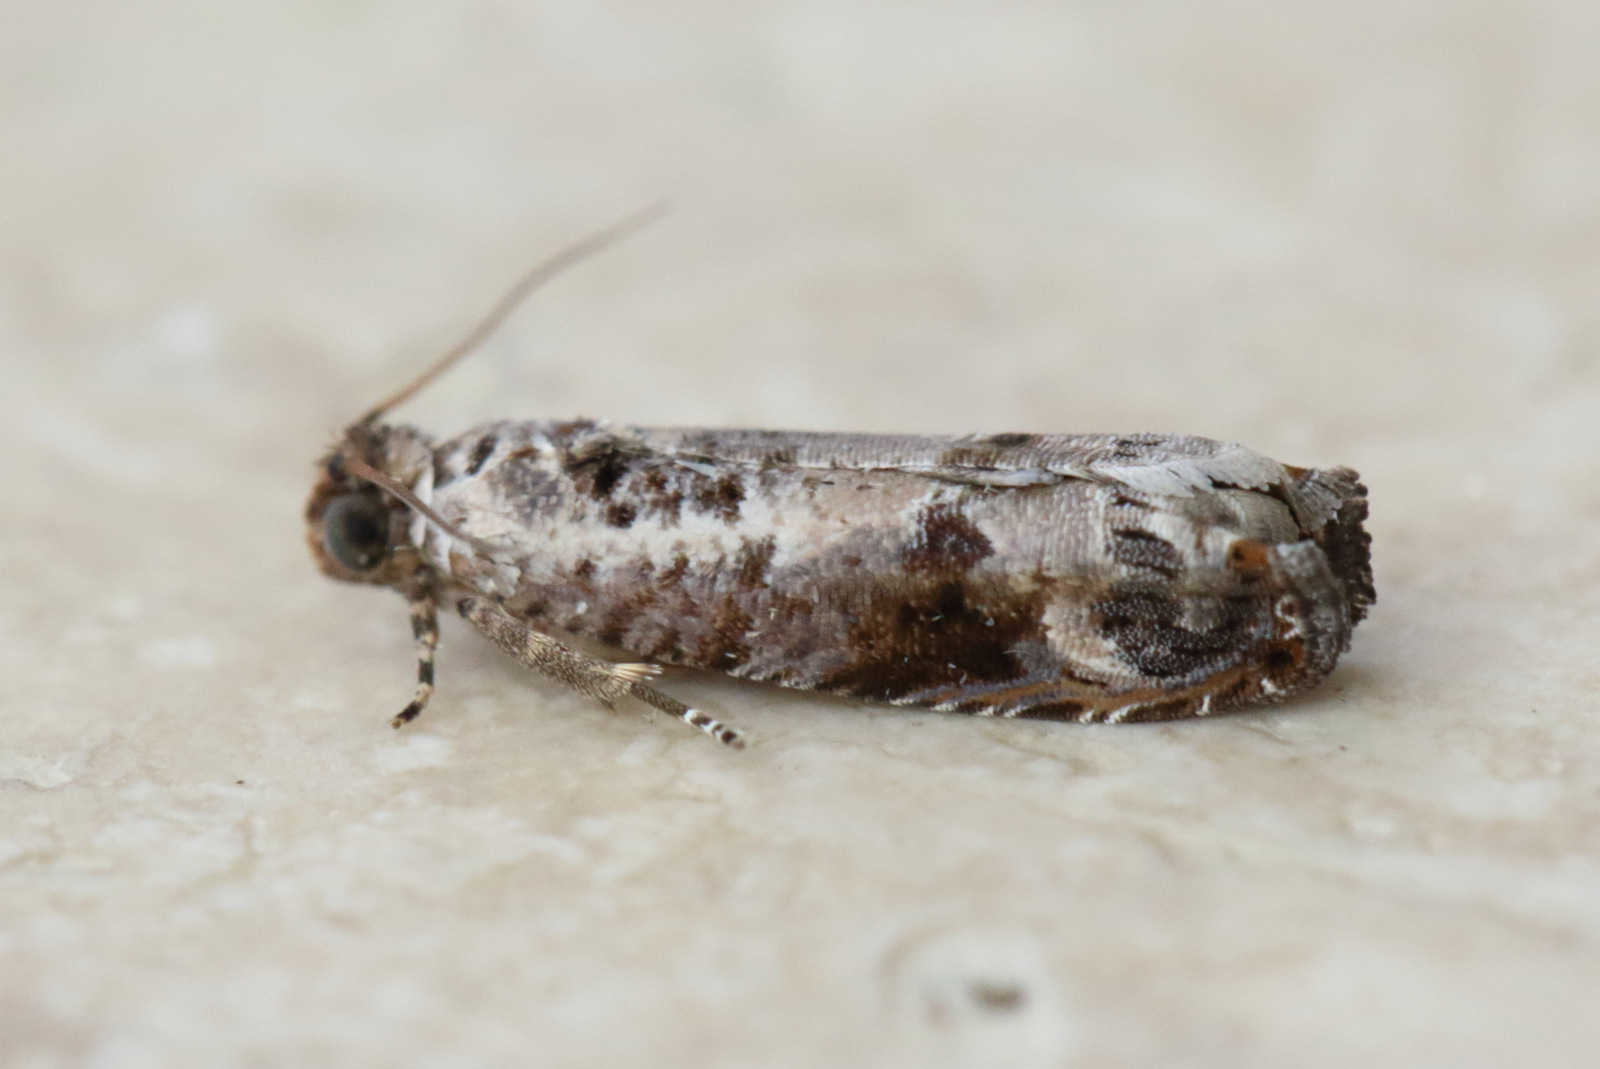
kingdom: Animalia
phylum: Arthropoda
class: Insecta
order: Lepidoptera
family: Tortricidae
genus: Dudua
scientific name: Dudua aprobola
